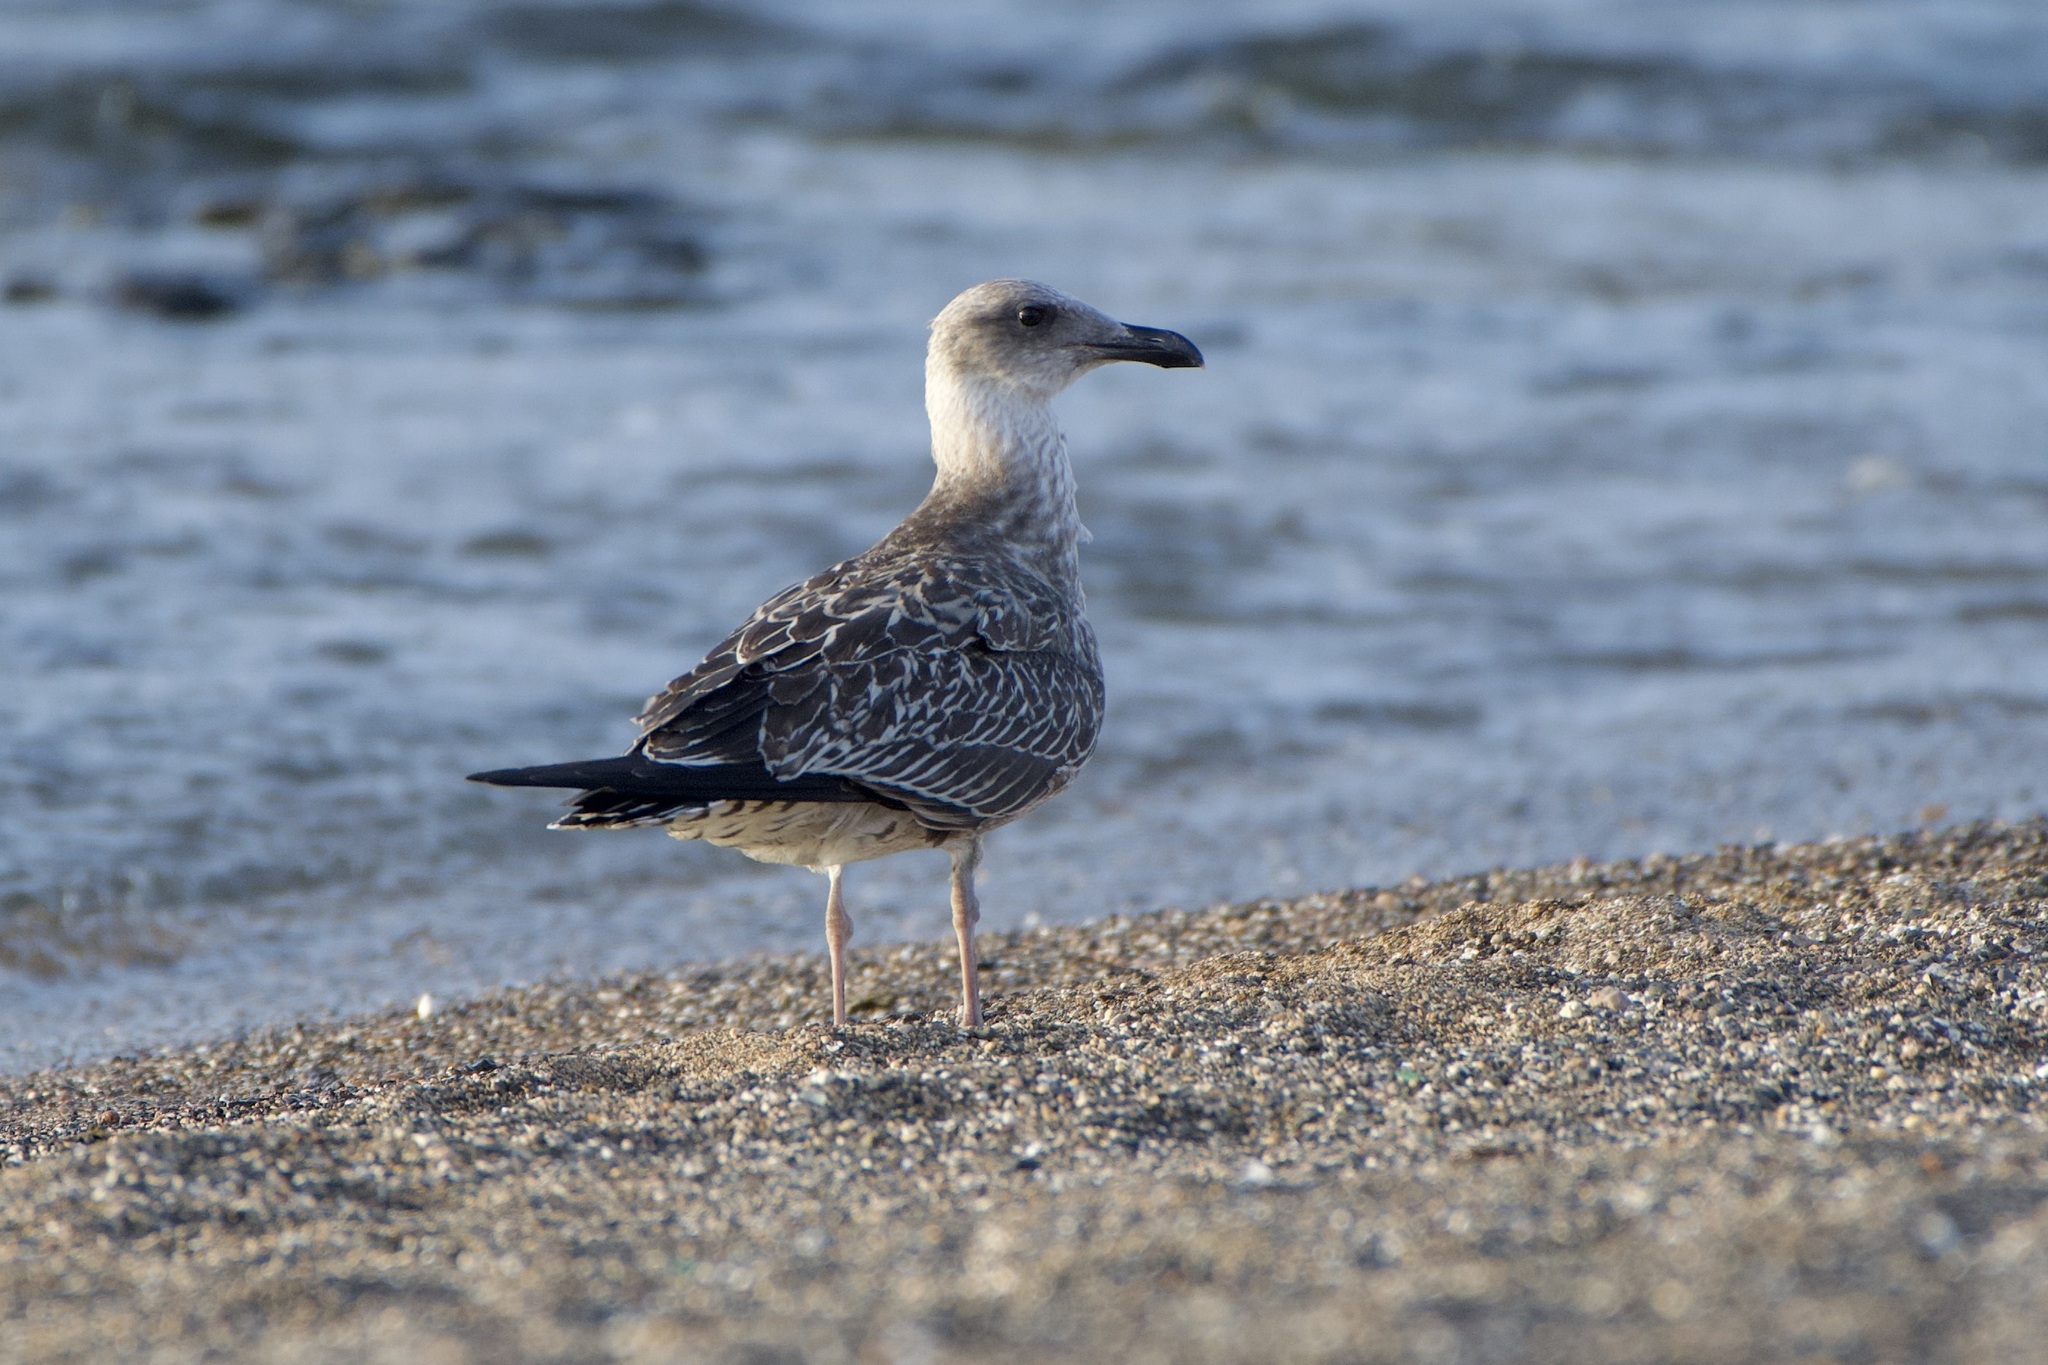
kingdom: Animalia
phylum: Chordata
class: Aves
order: Charadriiformes
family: Laridae
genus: Larus
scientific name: Larus michahellis
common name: Yellow-legged gull
